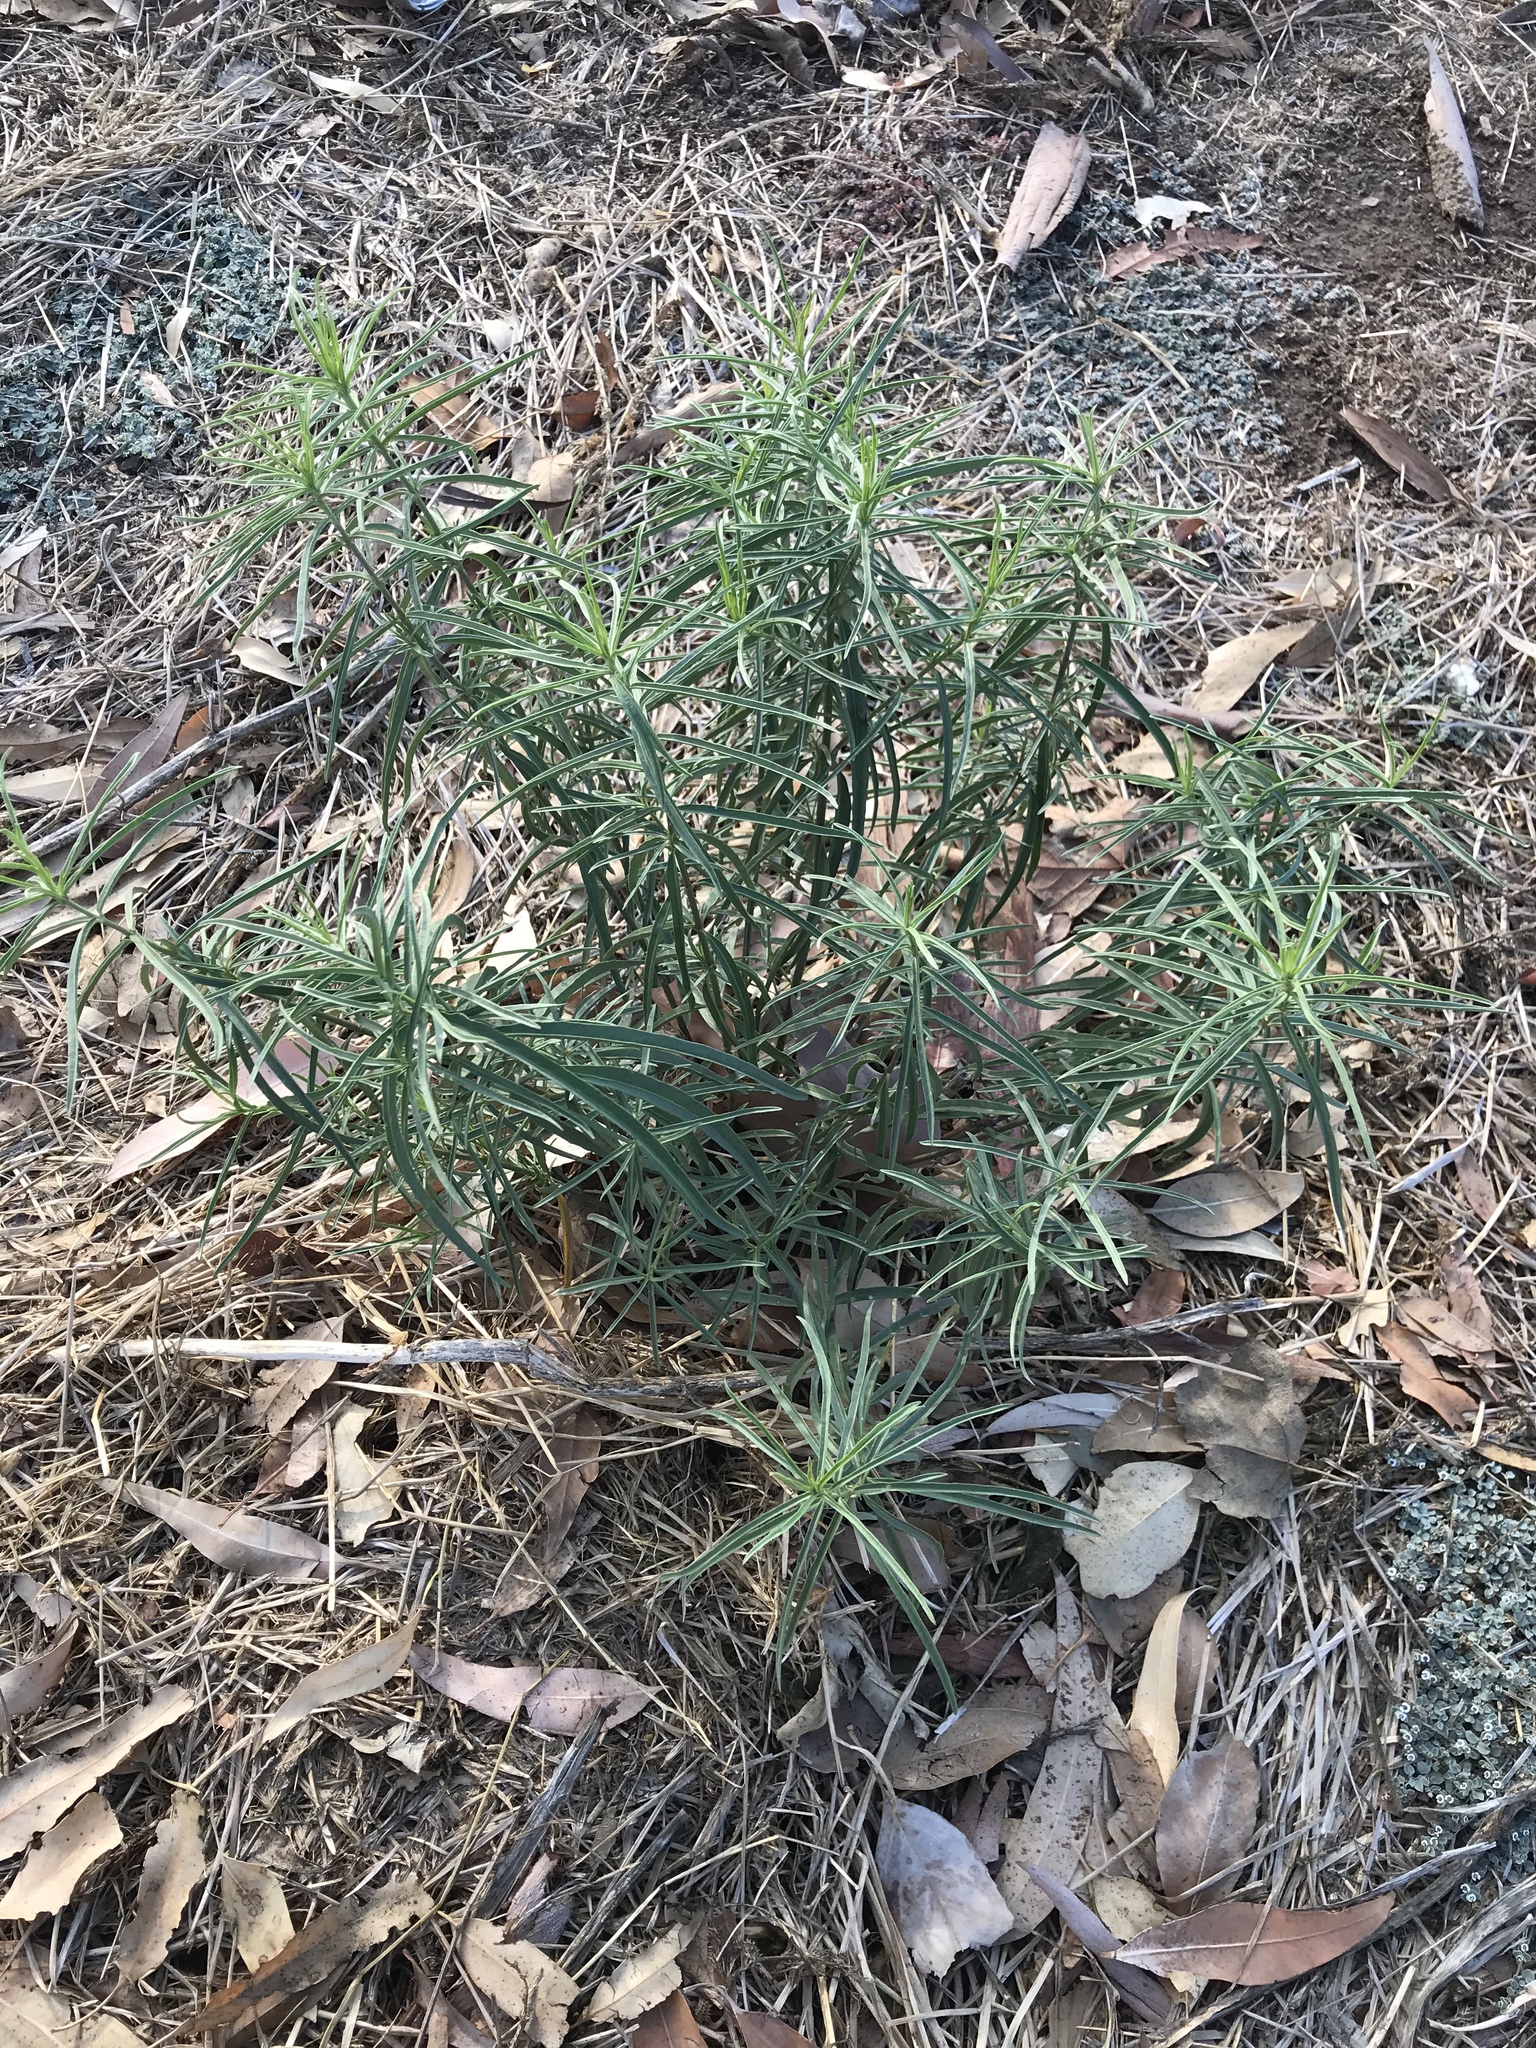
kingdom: Plantae
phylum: Tracheophyta
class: Magnoliopsida
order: Gentianales
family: Apocynaceae
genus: Asclepias
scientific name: Asclepias fascicularis
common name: Mexican milkweed
